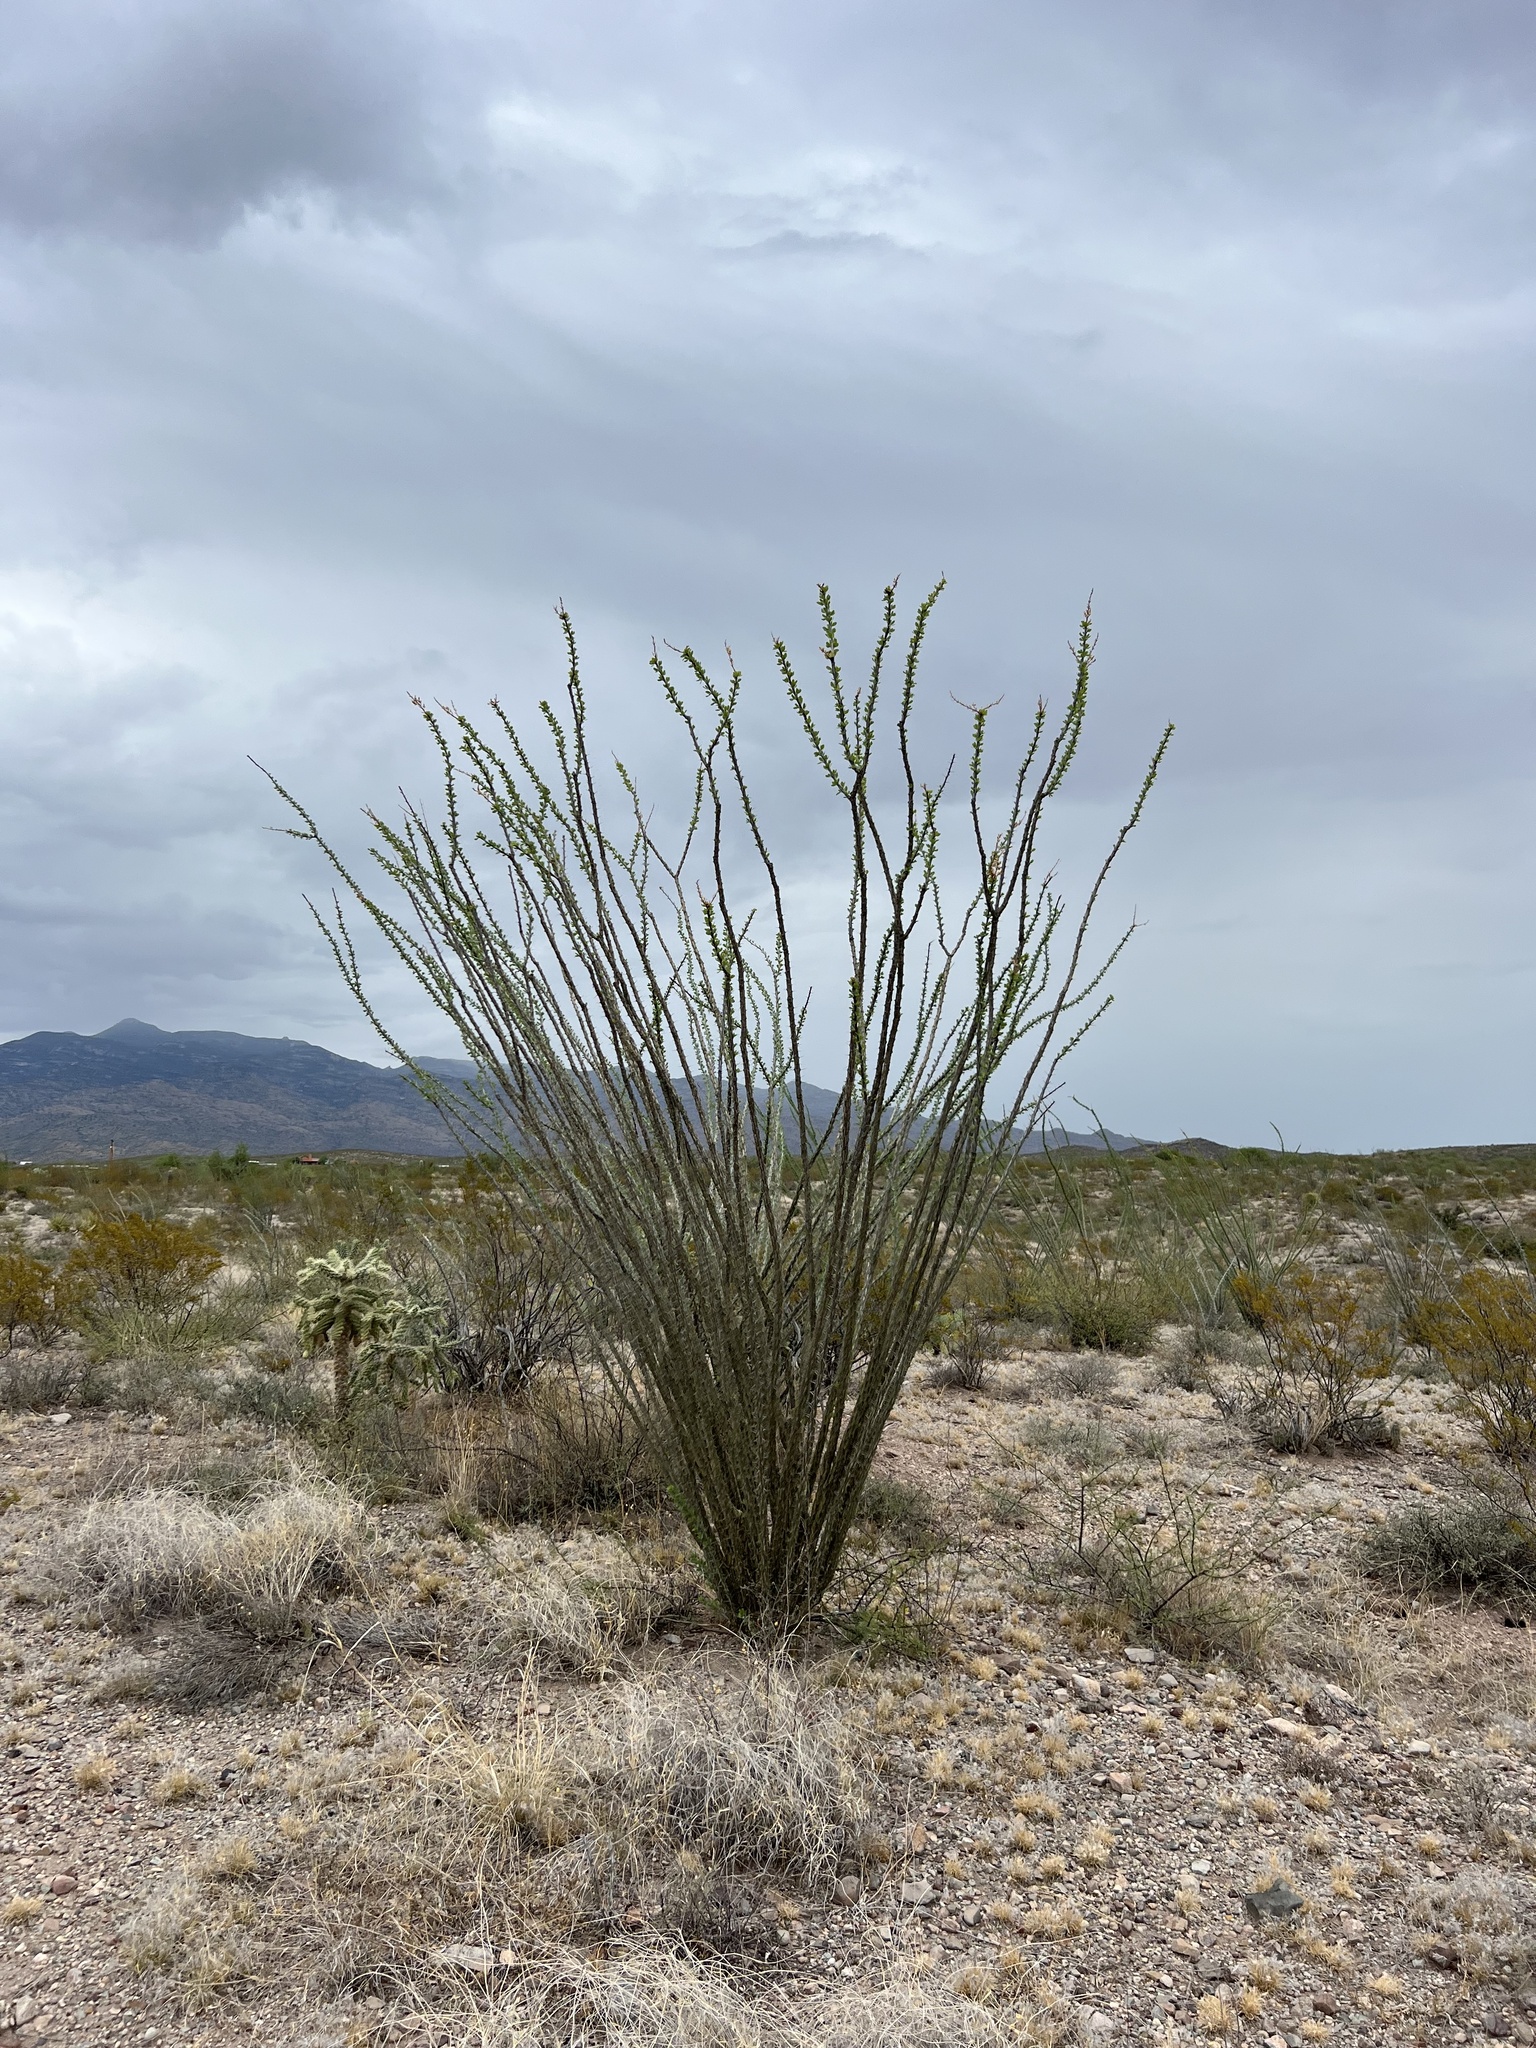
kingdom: Plantae
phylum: Tracheophyta
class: Magnoliopsida
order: Ericales
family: Fouquieriaceae
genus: Fouquieria
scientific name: Fouquieria splendens
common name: Vine-cactus
